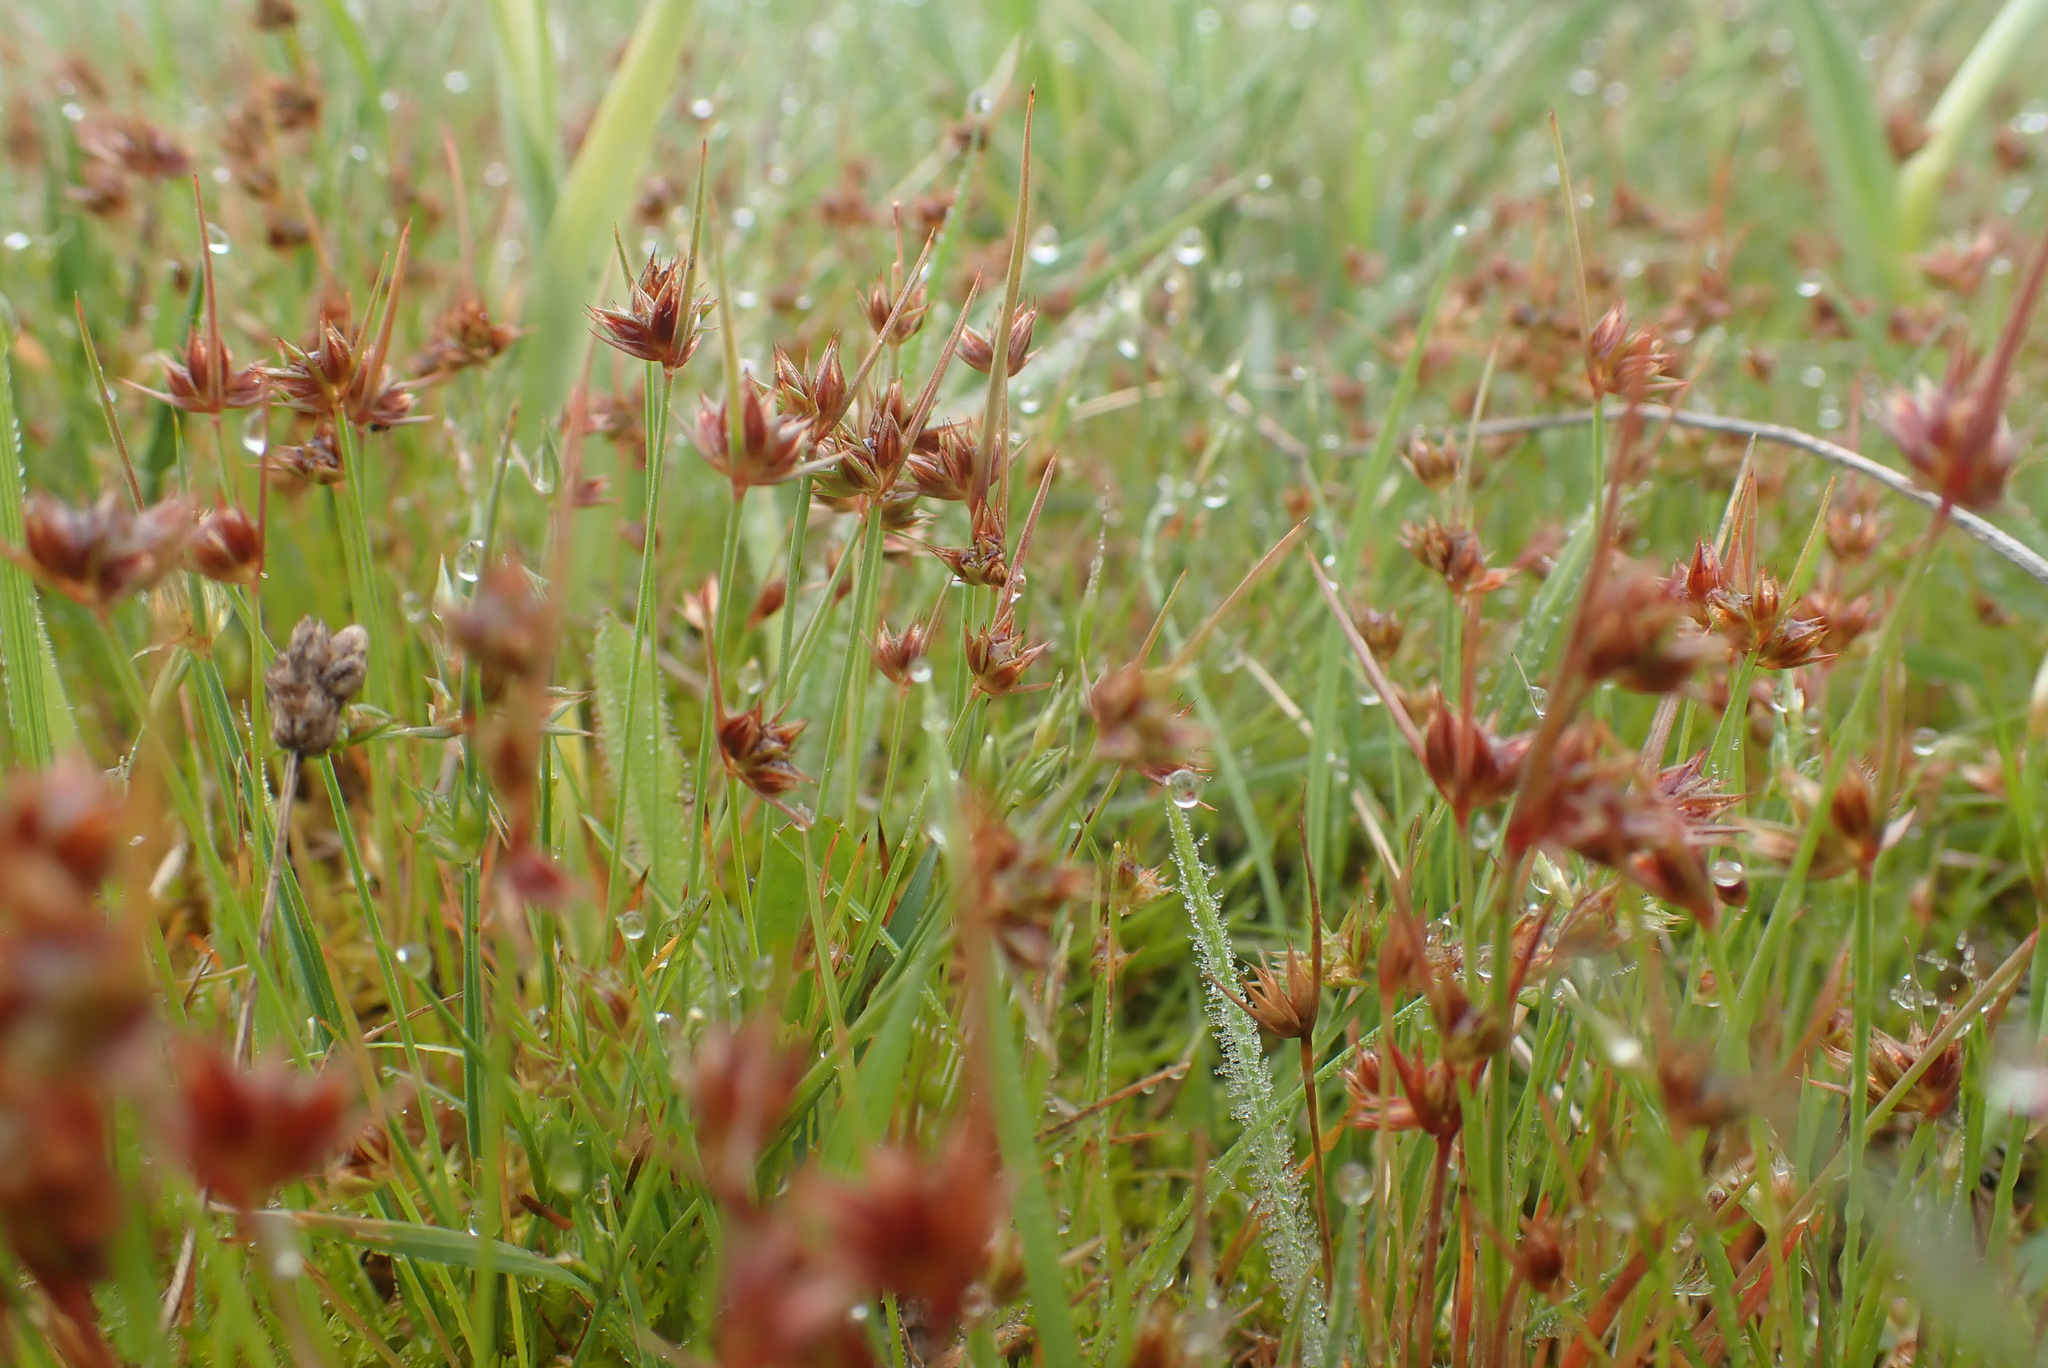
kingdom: Plantae
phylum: Tracheophyta
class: Liliopsida
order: Poales
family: Juncaceae
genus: Juncus
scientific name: Juncus capitatus
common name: Dwarf rush
